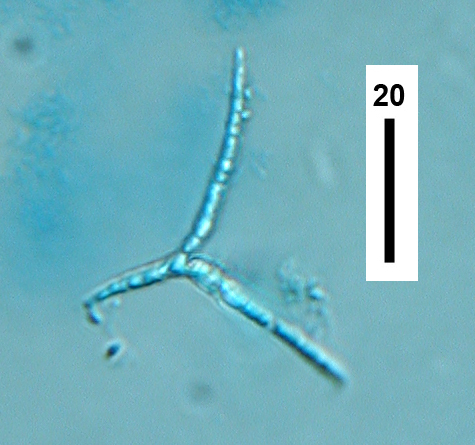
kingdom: Fungi
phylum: Ascomycota
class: Leotiomycetes
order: Leotiales
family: Leotiaceae
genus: Alatospora
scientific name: Alatospora acuminata
